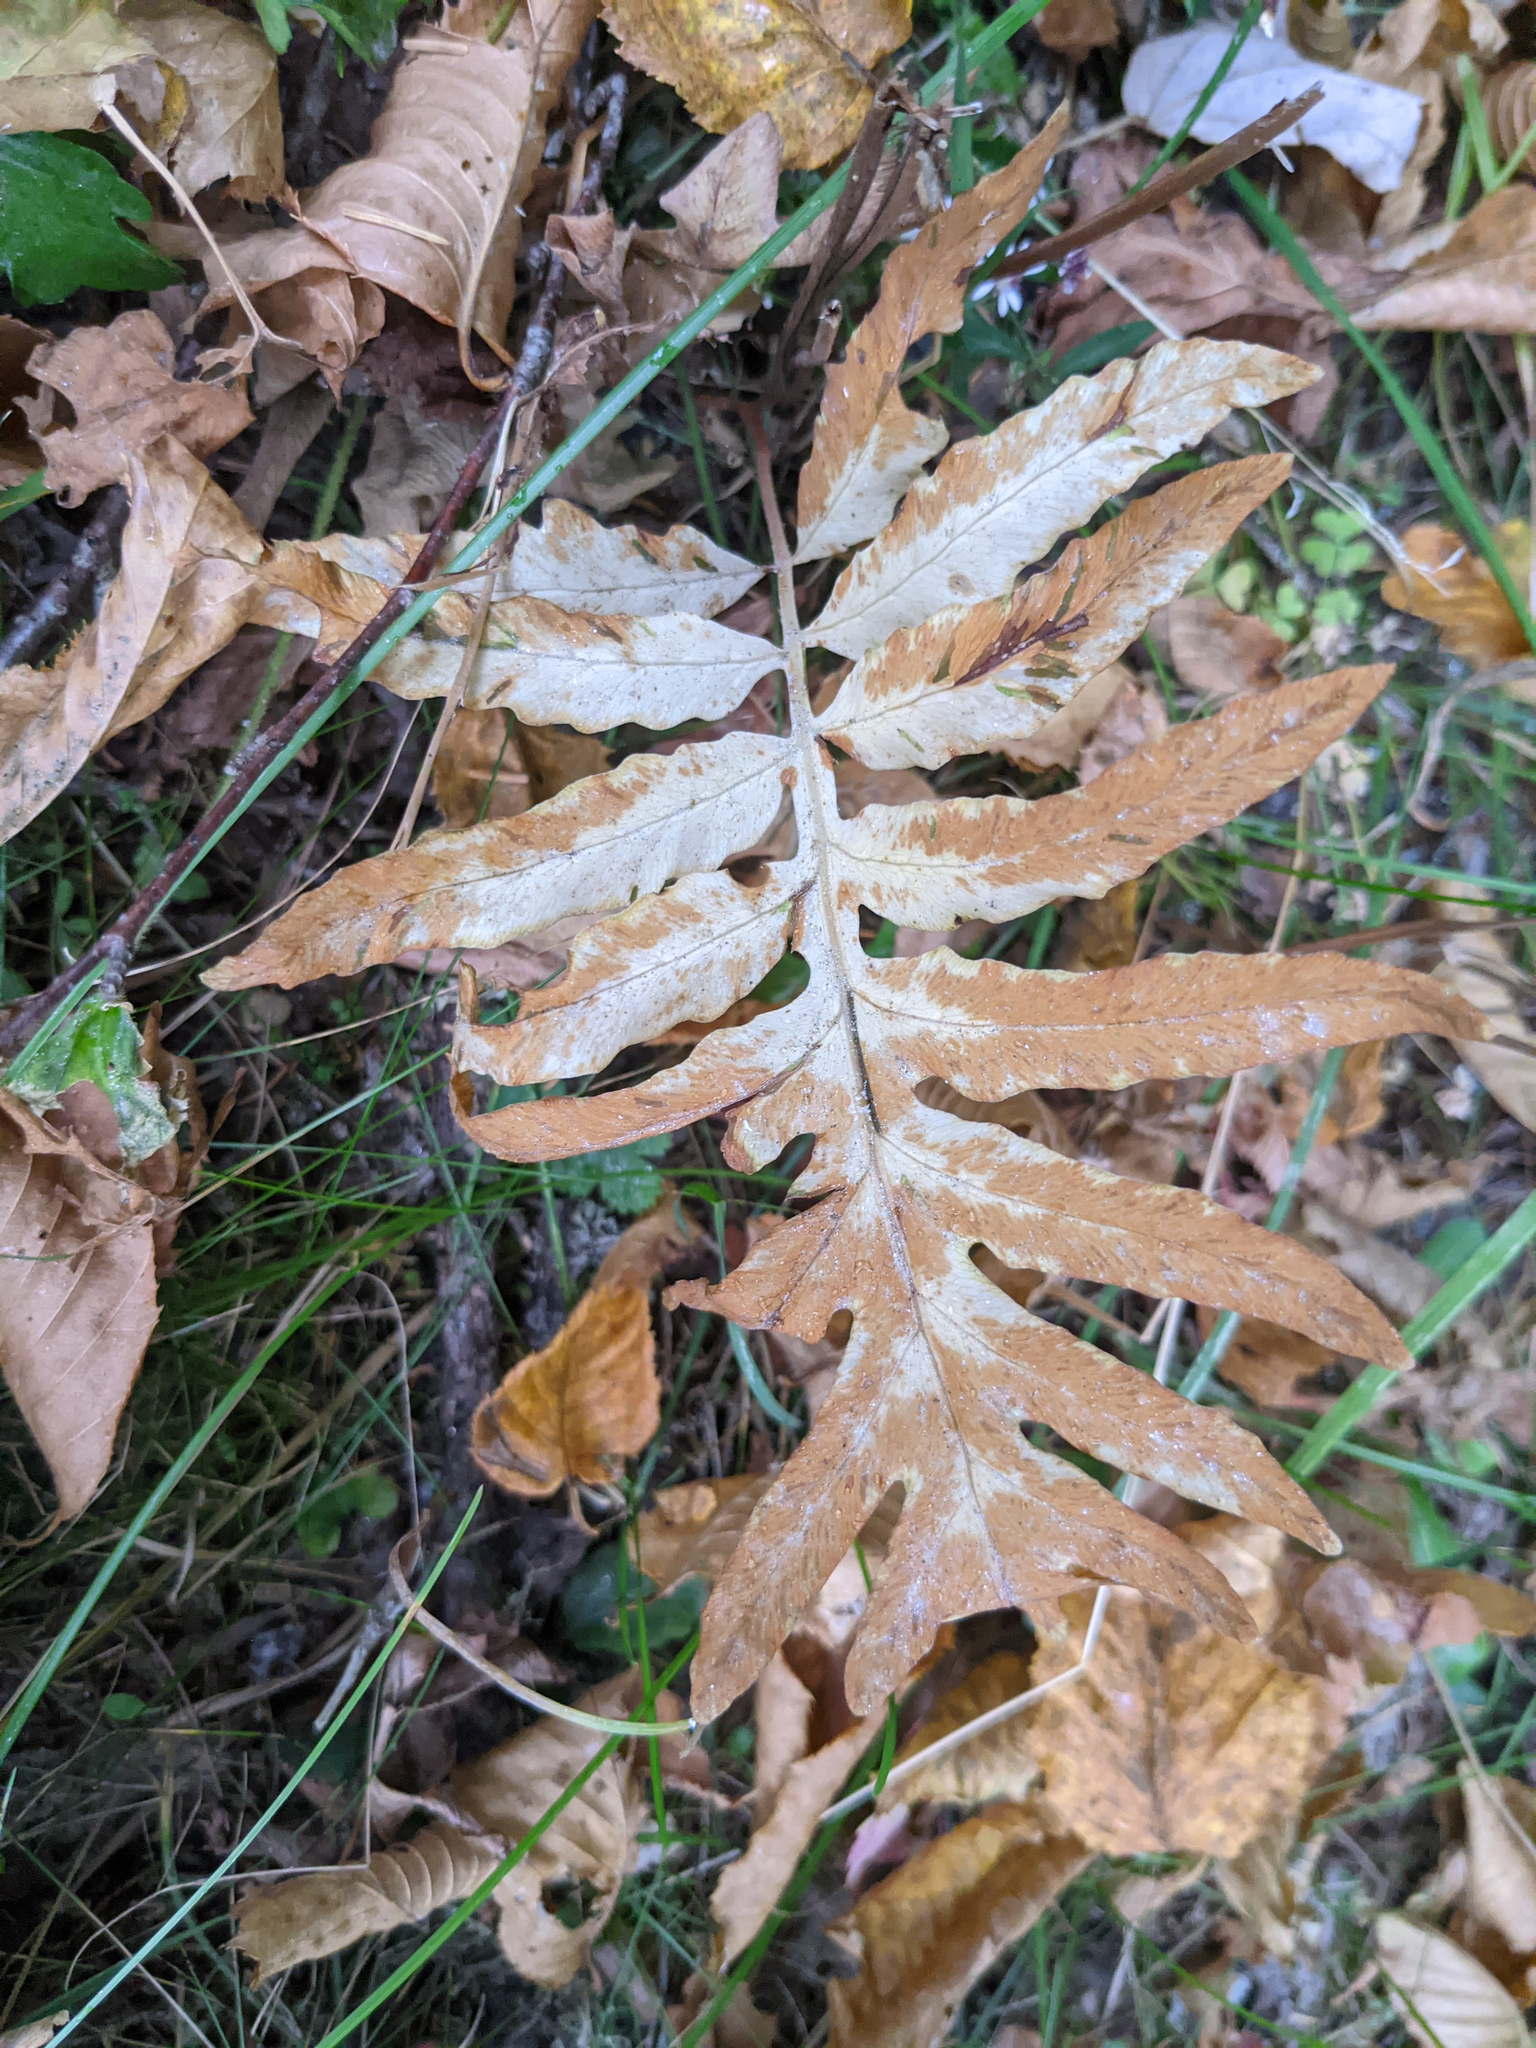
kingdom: Plantae
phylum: Tracheophyta
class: Polypodiopsida
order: Polypodiales
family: Onocleaceae
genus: Onoclea
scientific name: Onoclea sensibilis
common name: Sensitive fern
